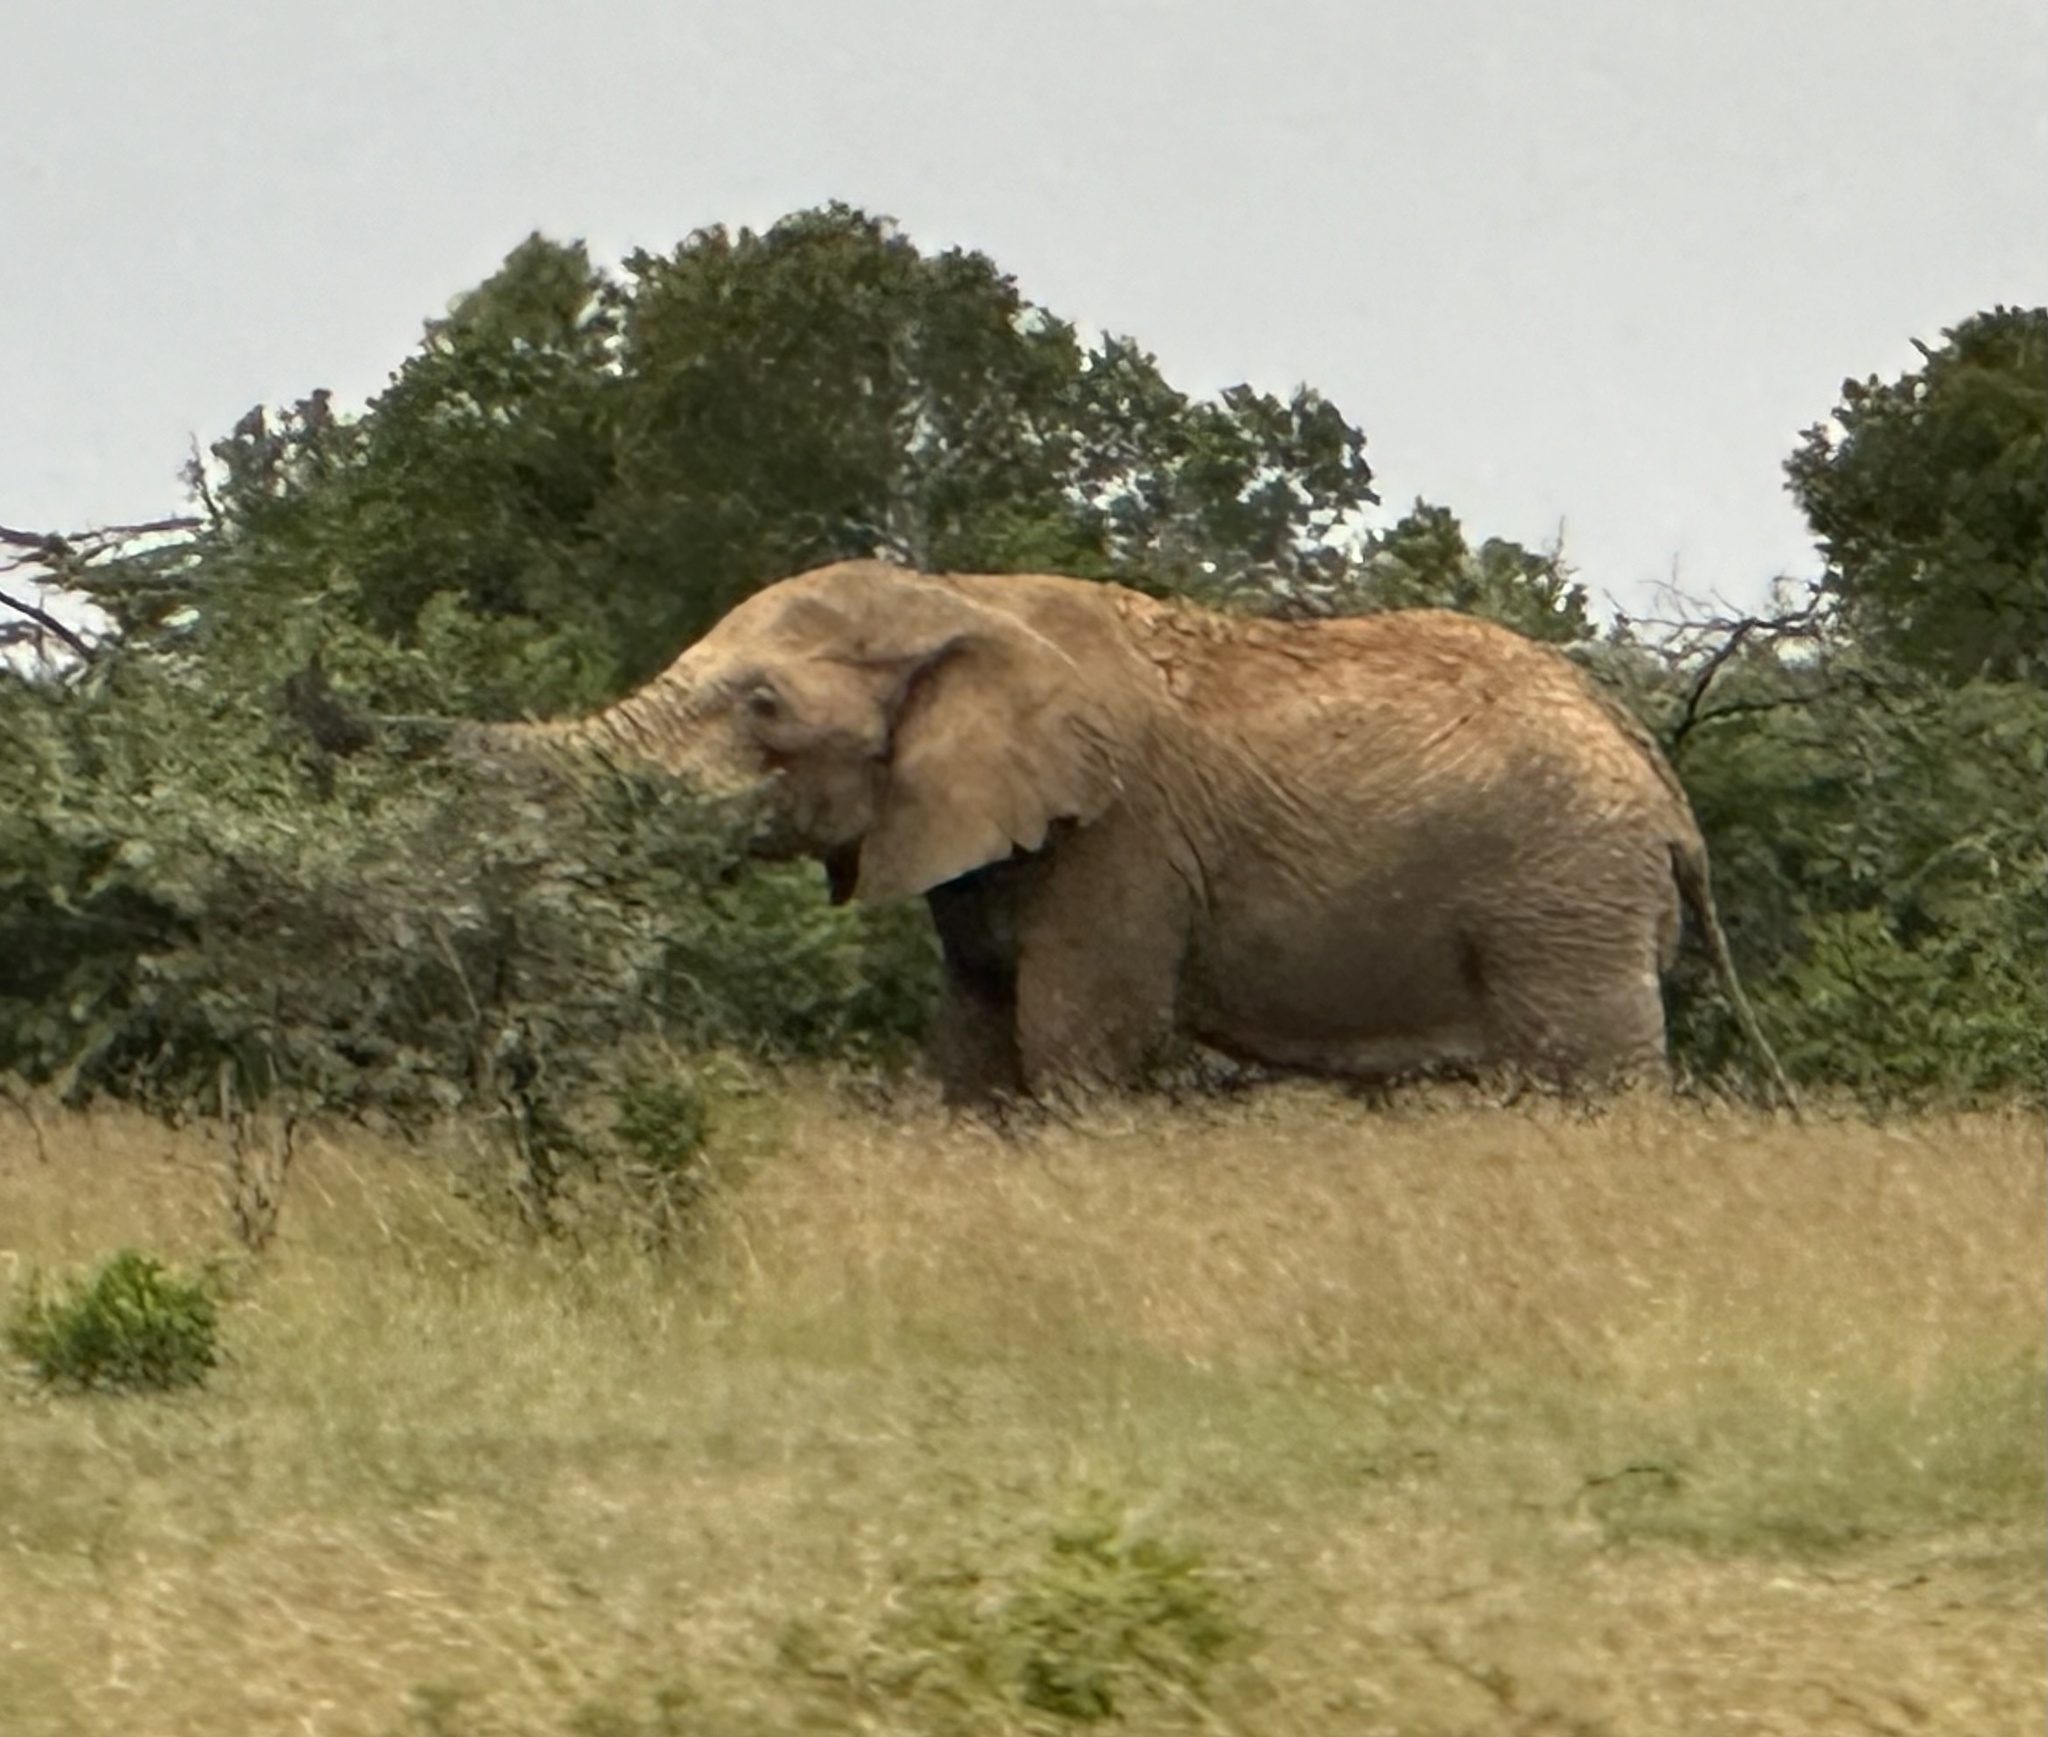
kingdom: Animalia
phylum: Chordata
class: Mammalia
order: Proboscidea
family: Elephantidae
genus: Loxodonta
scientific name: Loxodonta africana
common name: African elephant
